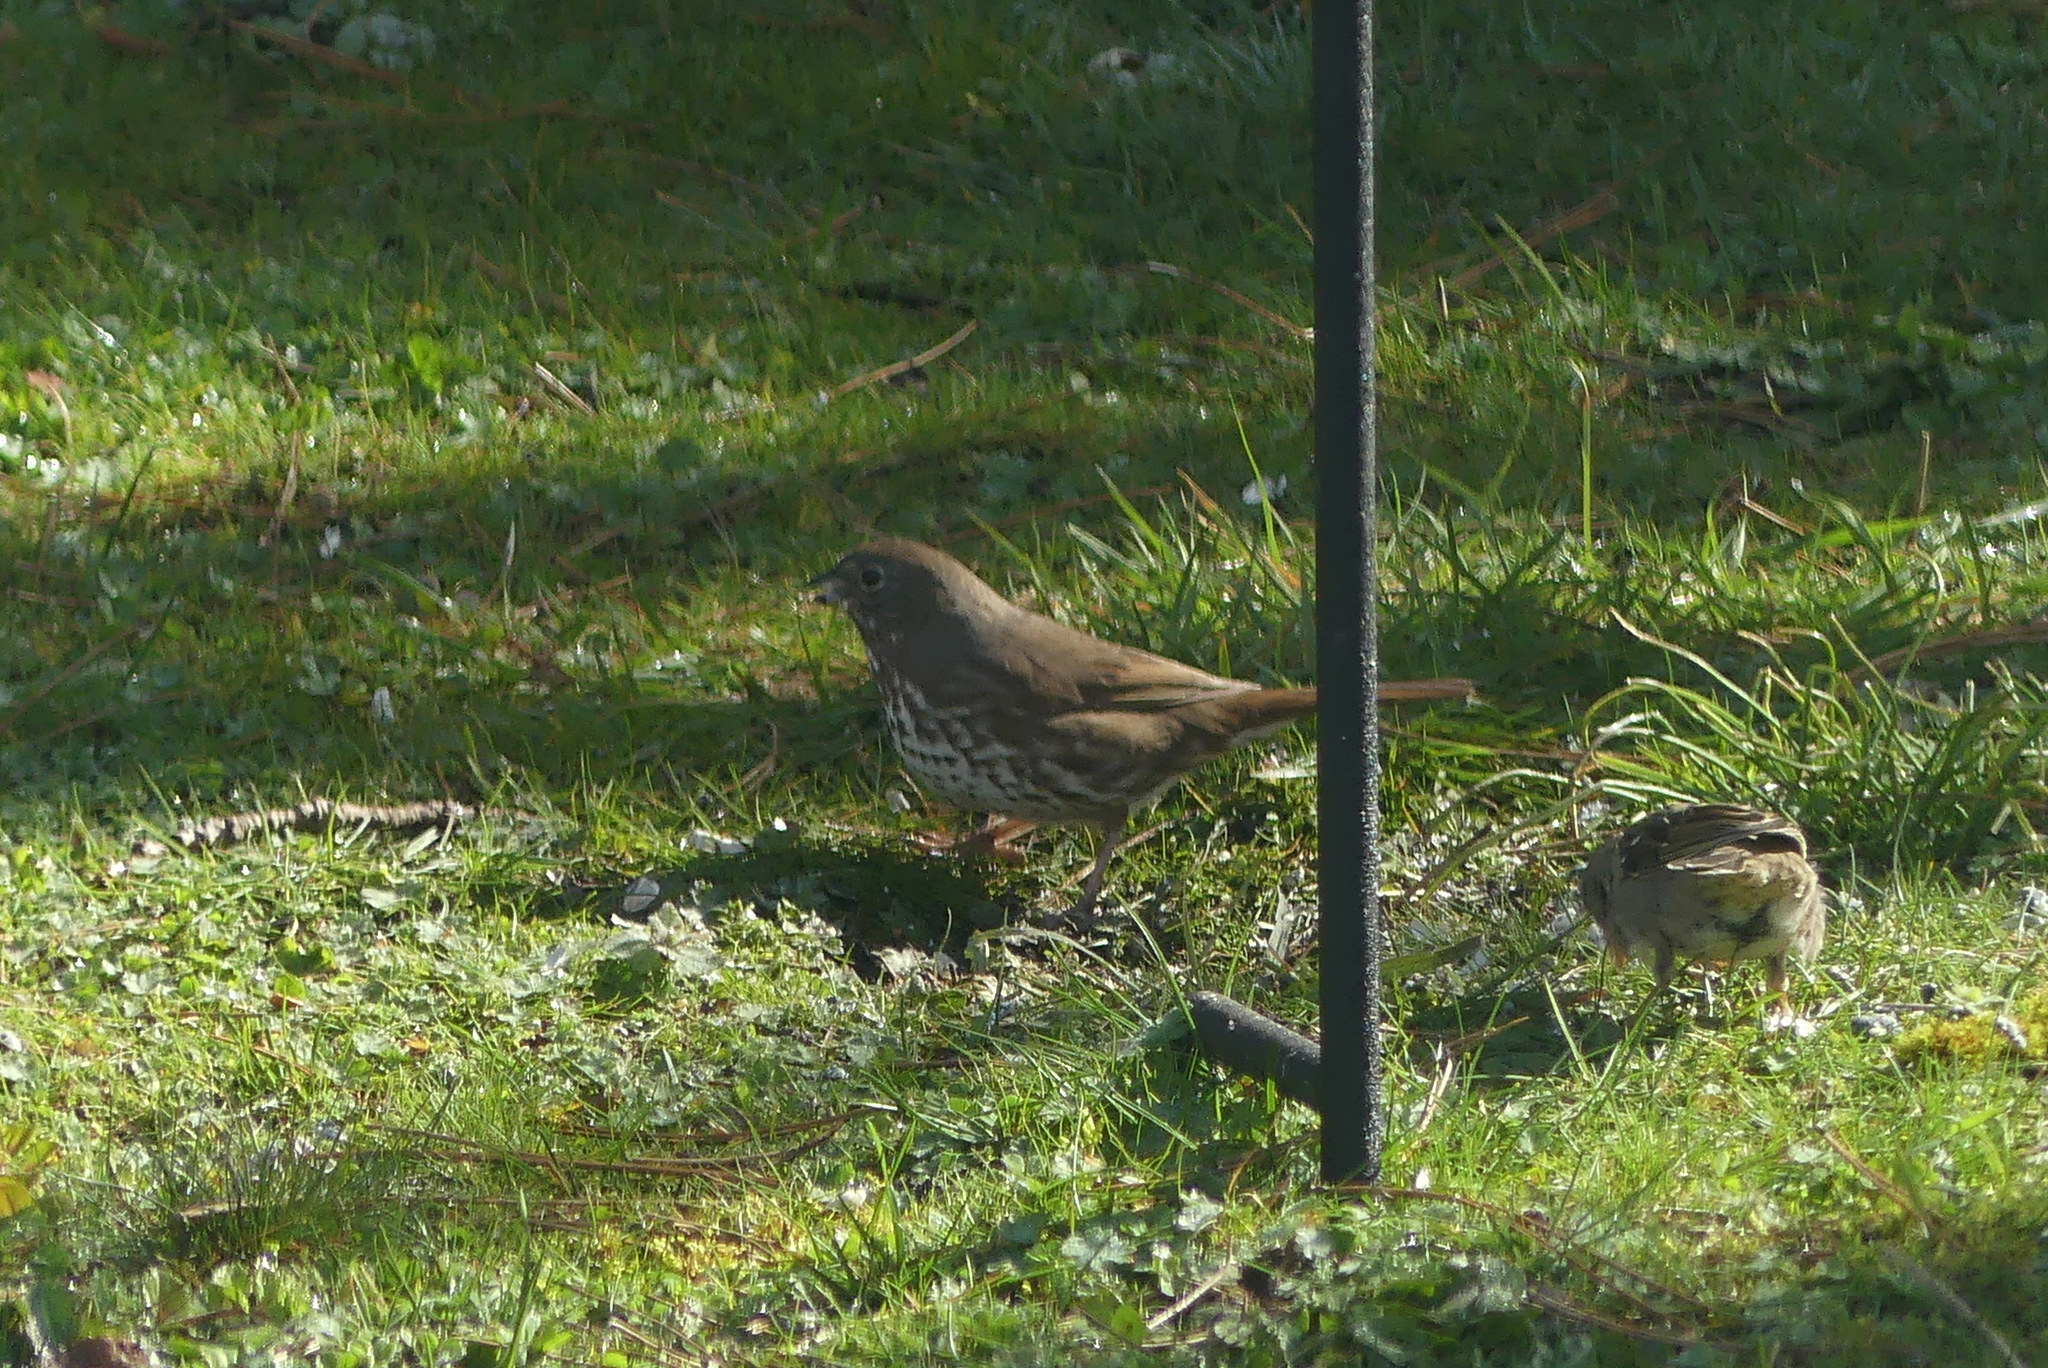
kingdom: Animalia
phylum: Chordata
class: Aves
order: Passeriformes
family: Passerellidae
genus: Passerella
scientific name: Passerella iliaca
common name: Fox sparrow
